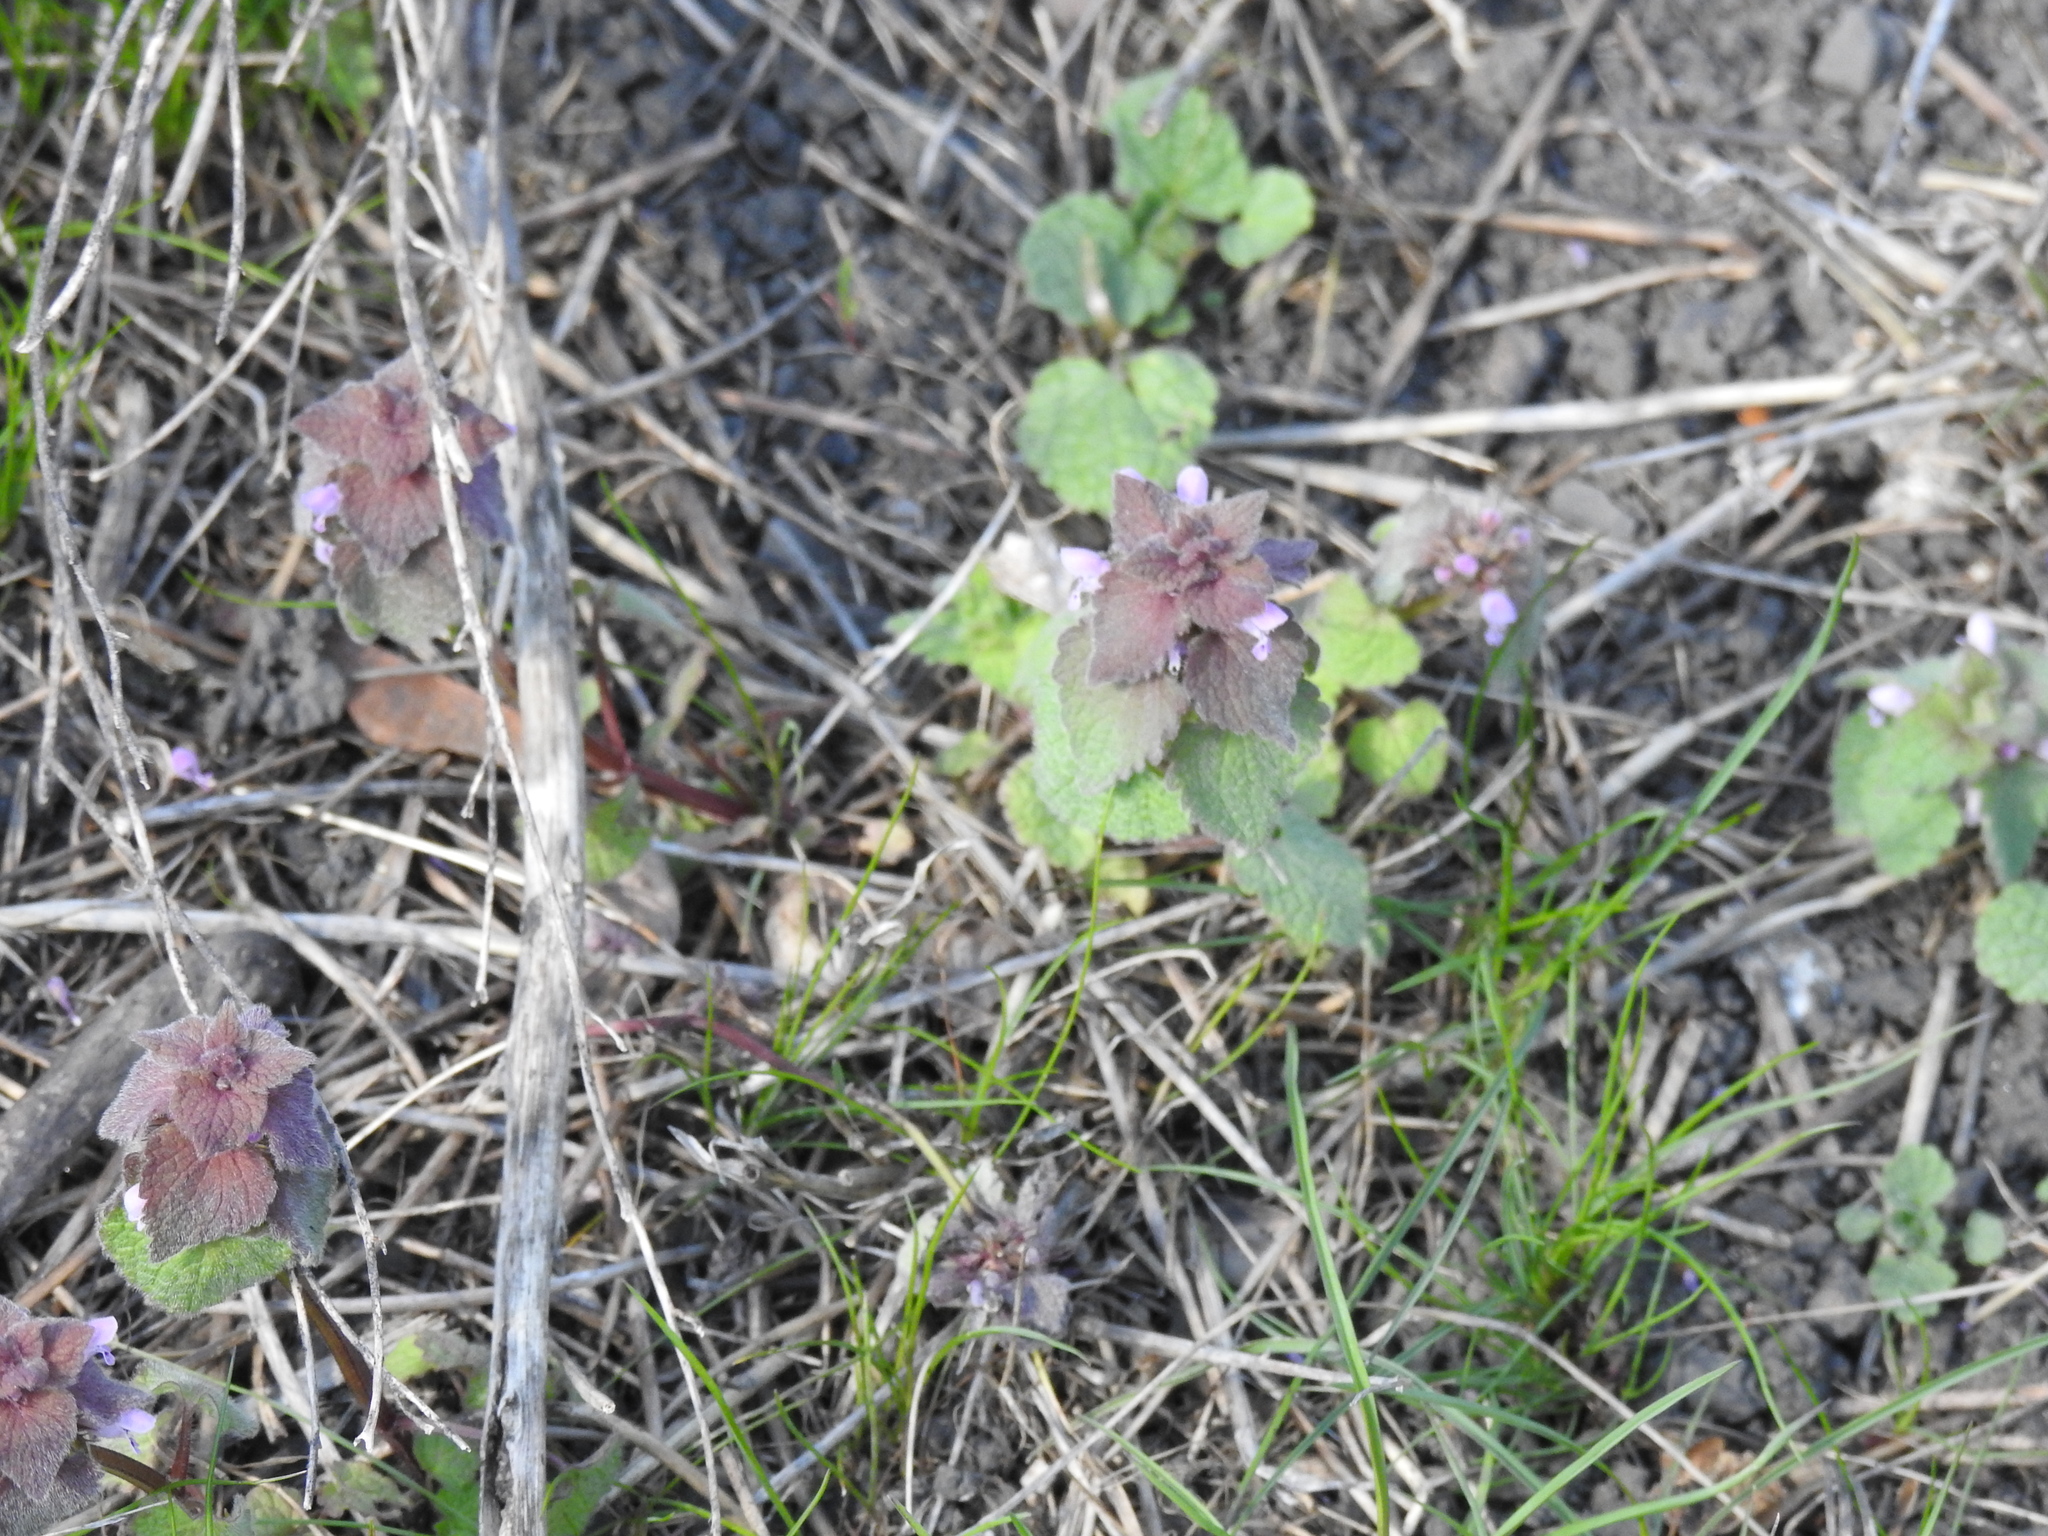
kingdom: Plantae
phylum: Tracheophyta
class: Magnoliopsida
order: Lamiales
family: Lamiaceae
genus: Lamium
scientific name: Lamium purpureum
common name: Red dead-nettle
